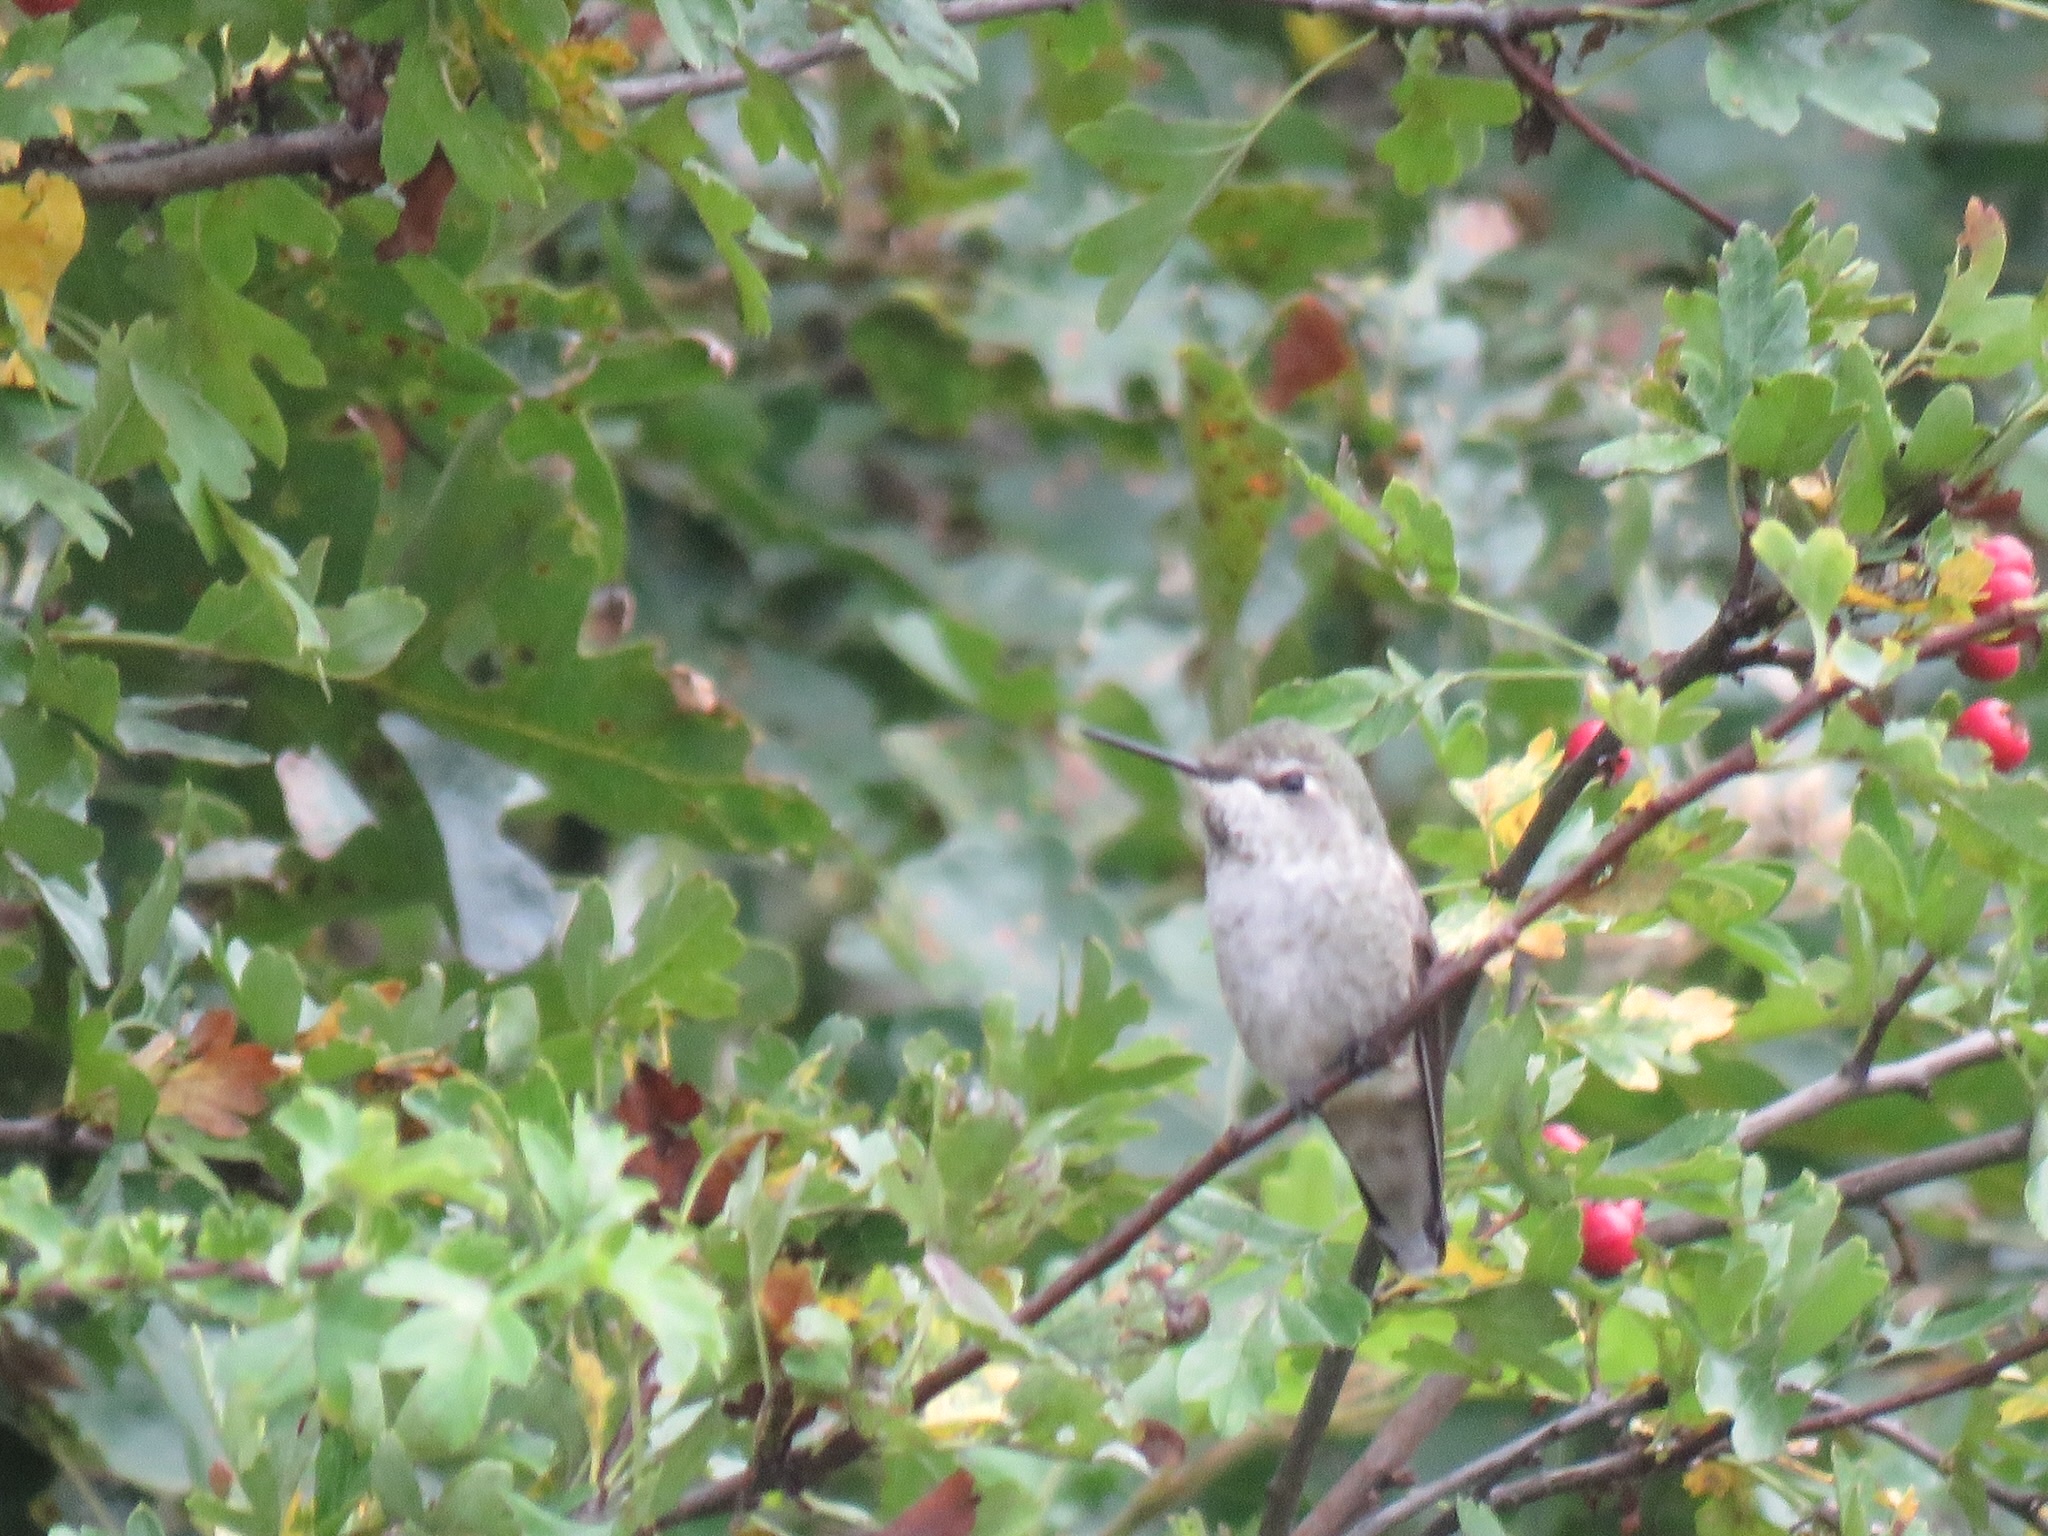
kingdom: Animalia
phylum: Chordata
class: Aves
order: Apodiformes
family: Trochilidae
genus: Calypte
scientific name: Calypte anna
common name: Anna's hummingbird
